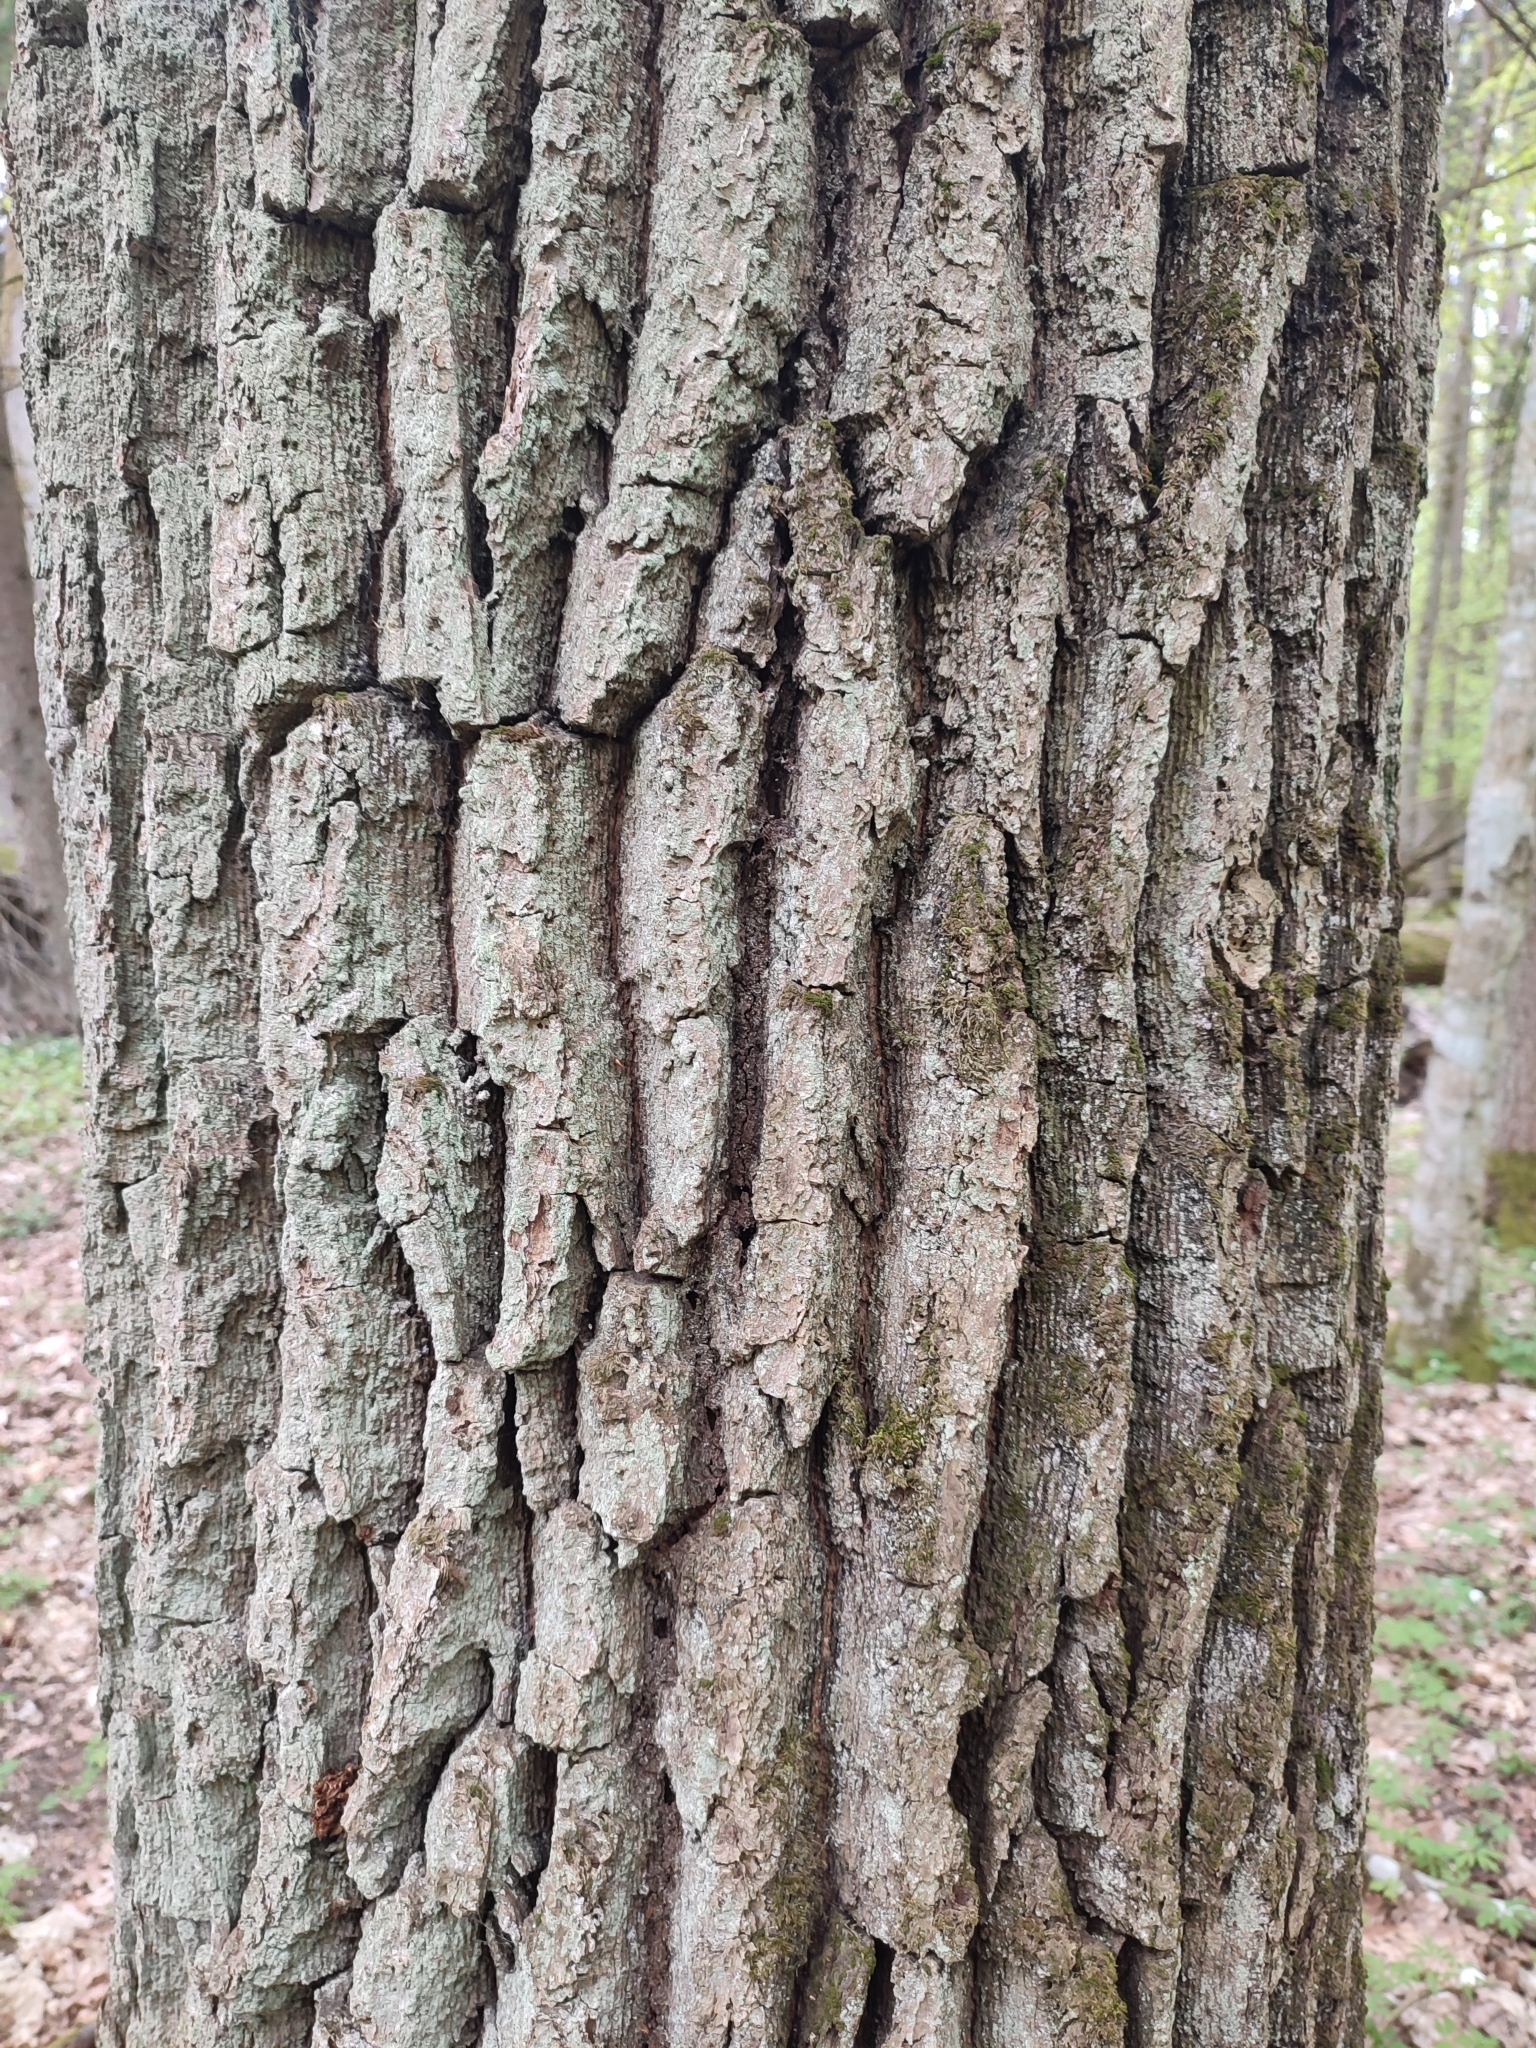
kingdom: Plantae
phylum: Tracheophyta
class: Magnoliopsida
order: Fagales
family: Fagaceae
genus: Quercus
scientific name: Quercus robur
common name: Pedunculate oak
